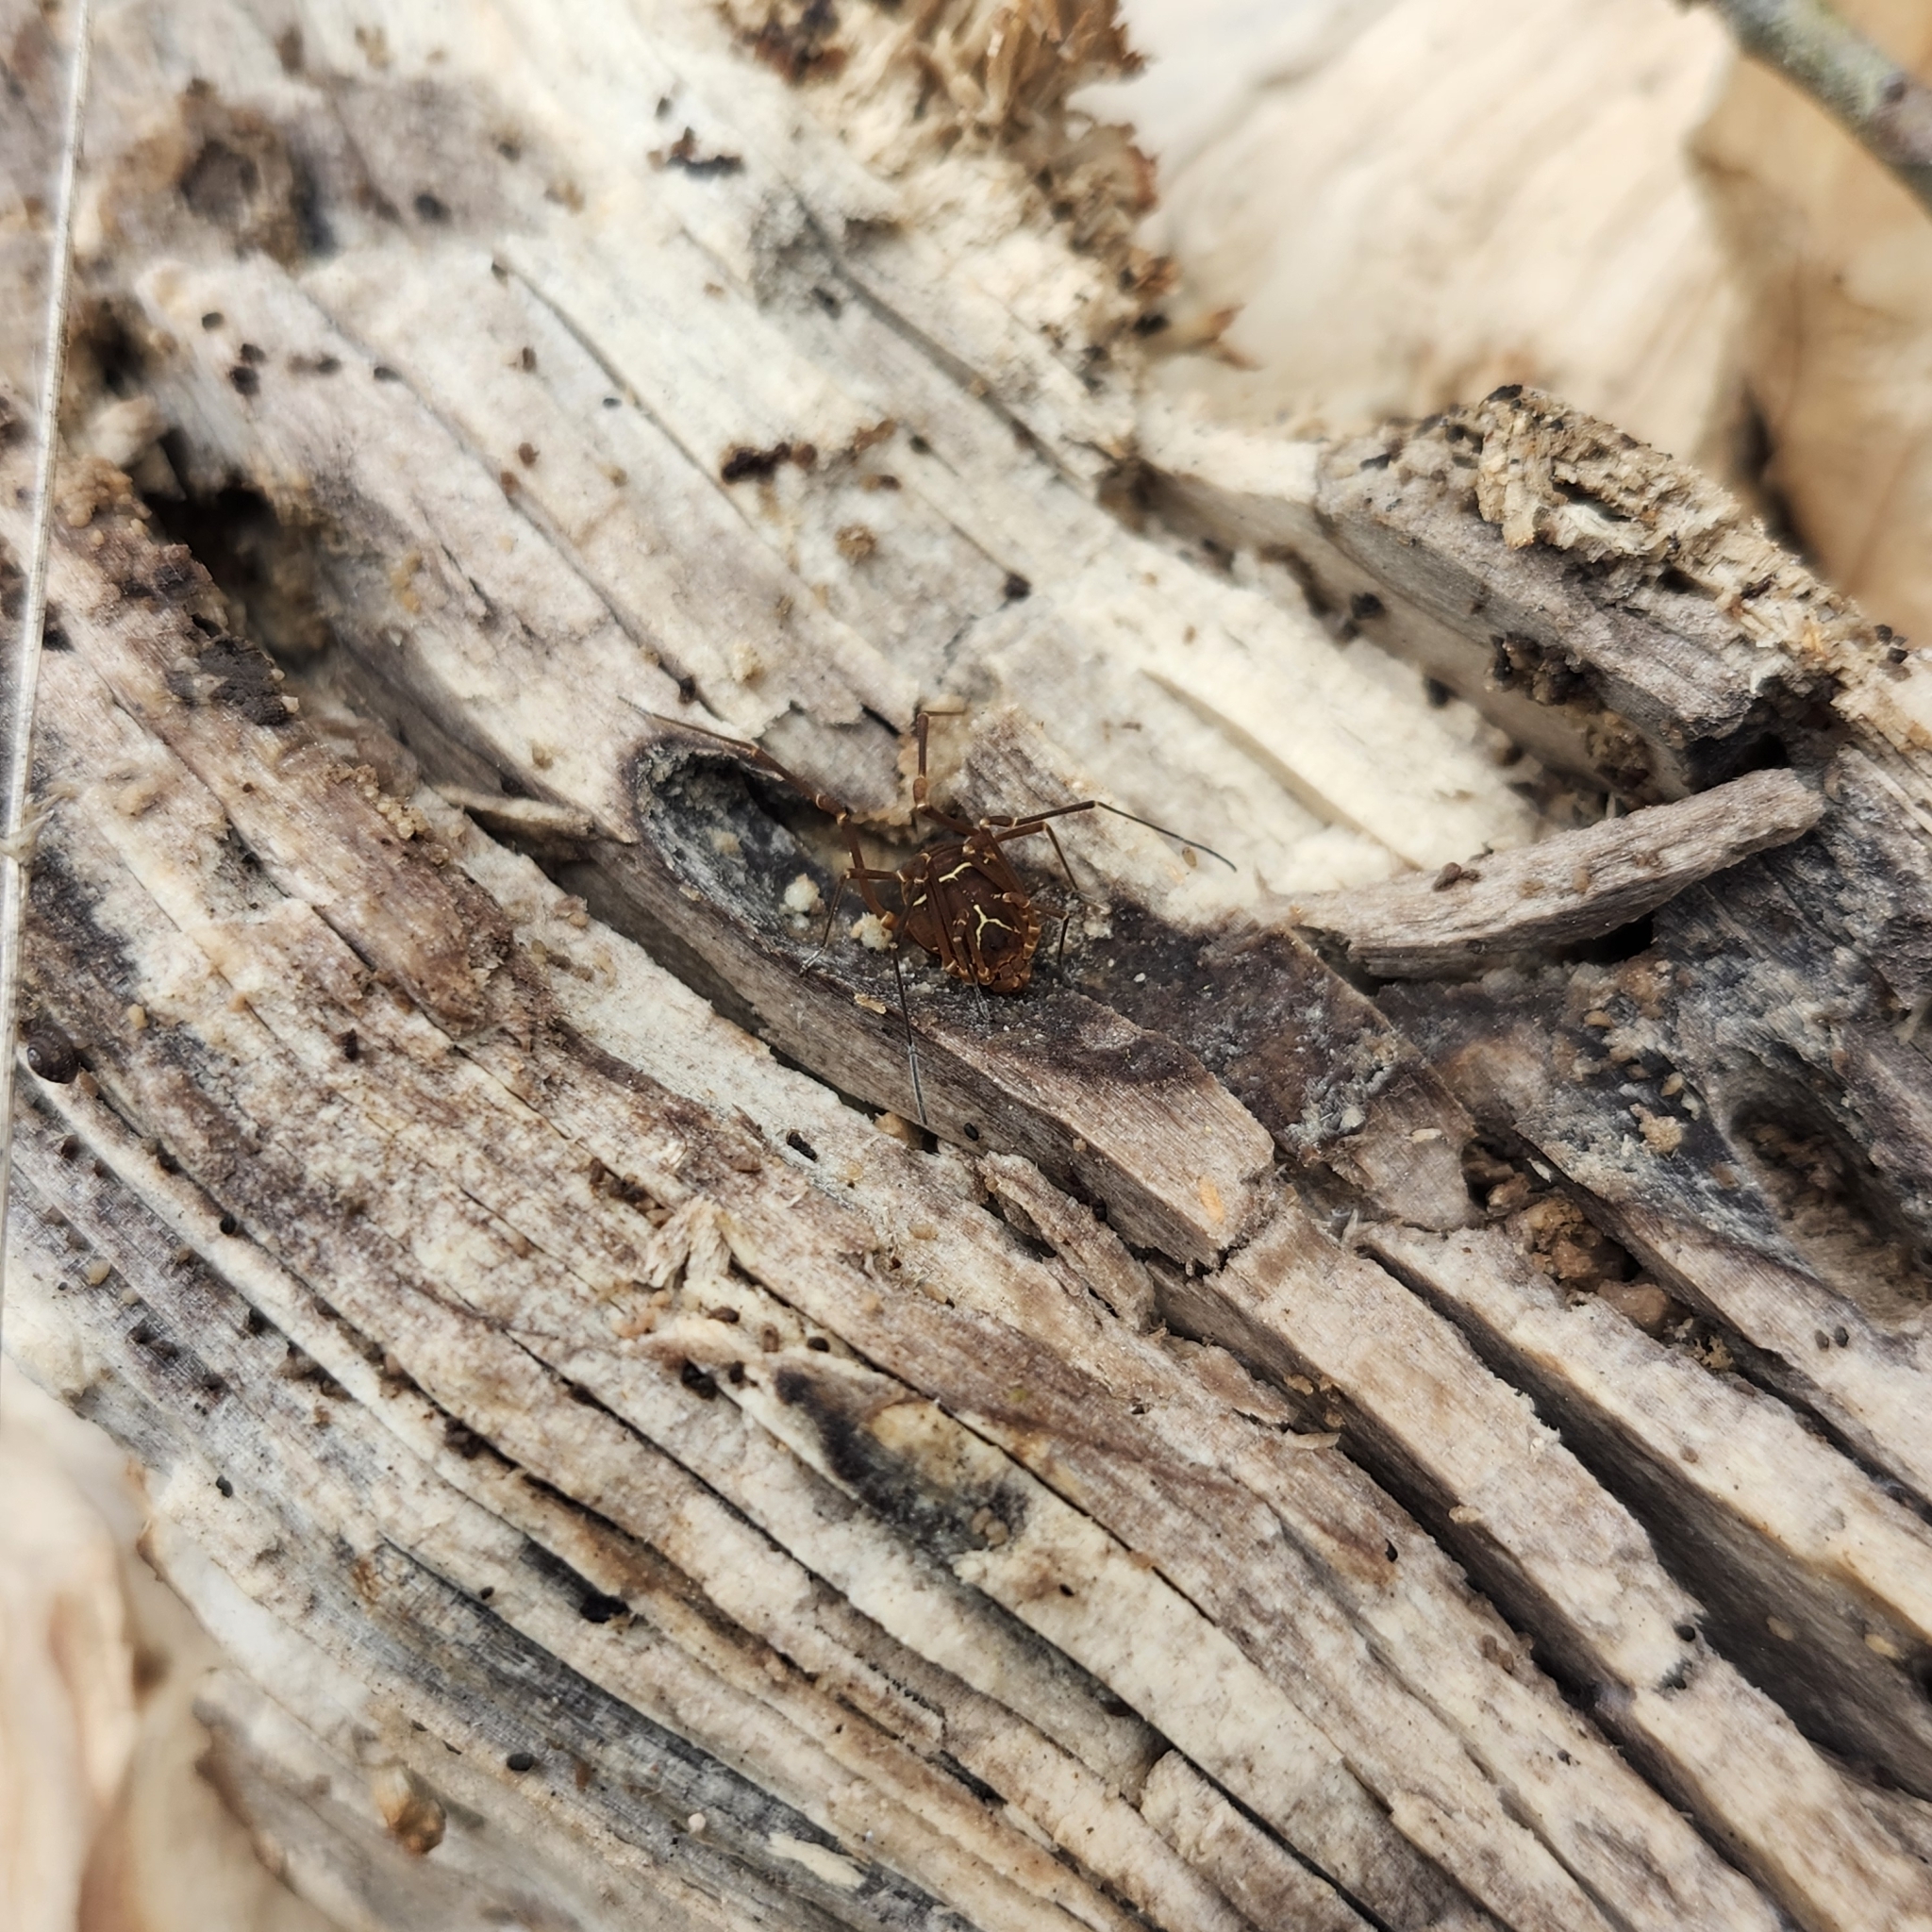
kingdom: Animalia
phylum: Arthropoda
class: Arachnida
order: Opiliones
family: Cosmetidae
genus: Libitioides
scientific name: Libitioides sayi
